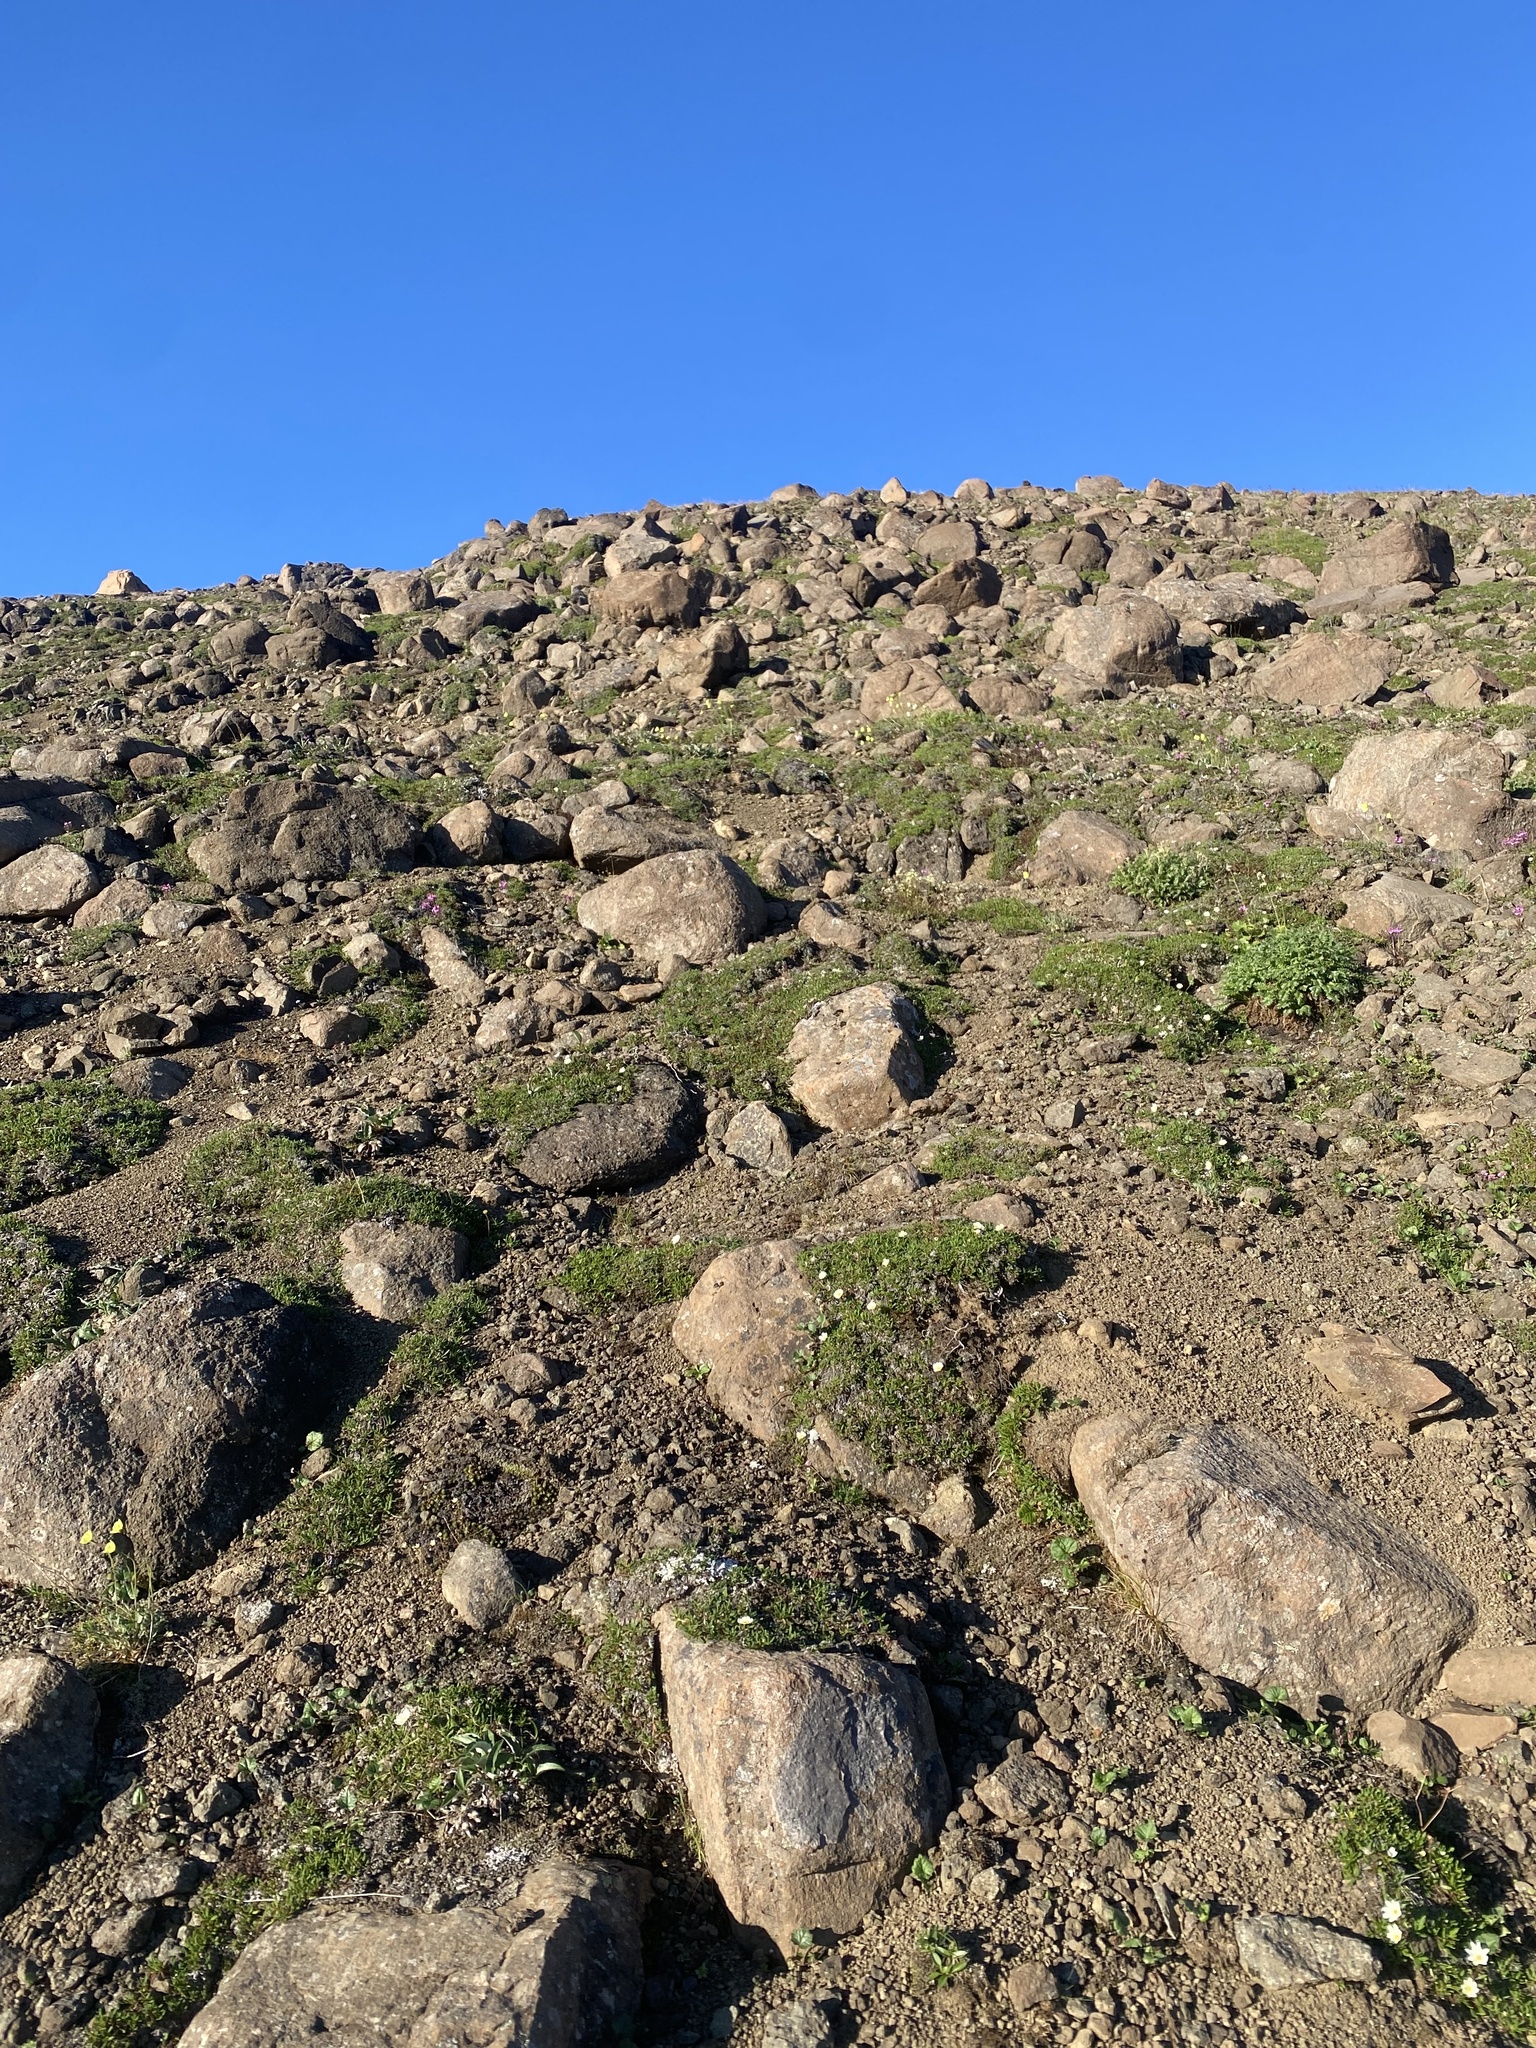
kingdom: Plantae
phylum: Tracheophyta
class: Magnoliopsida
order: Caryophyllales
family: Caryophyllaceae
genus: Pseudocherleria
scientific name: Pseudocherleria macrocarpa
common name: Large-fruit sandwort
